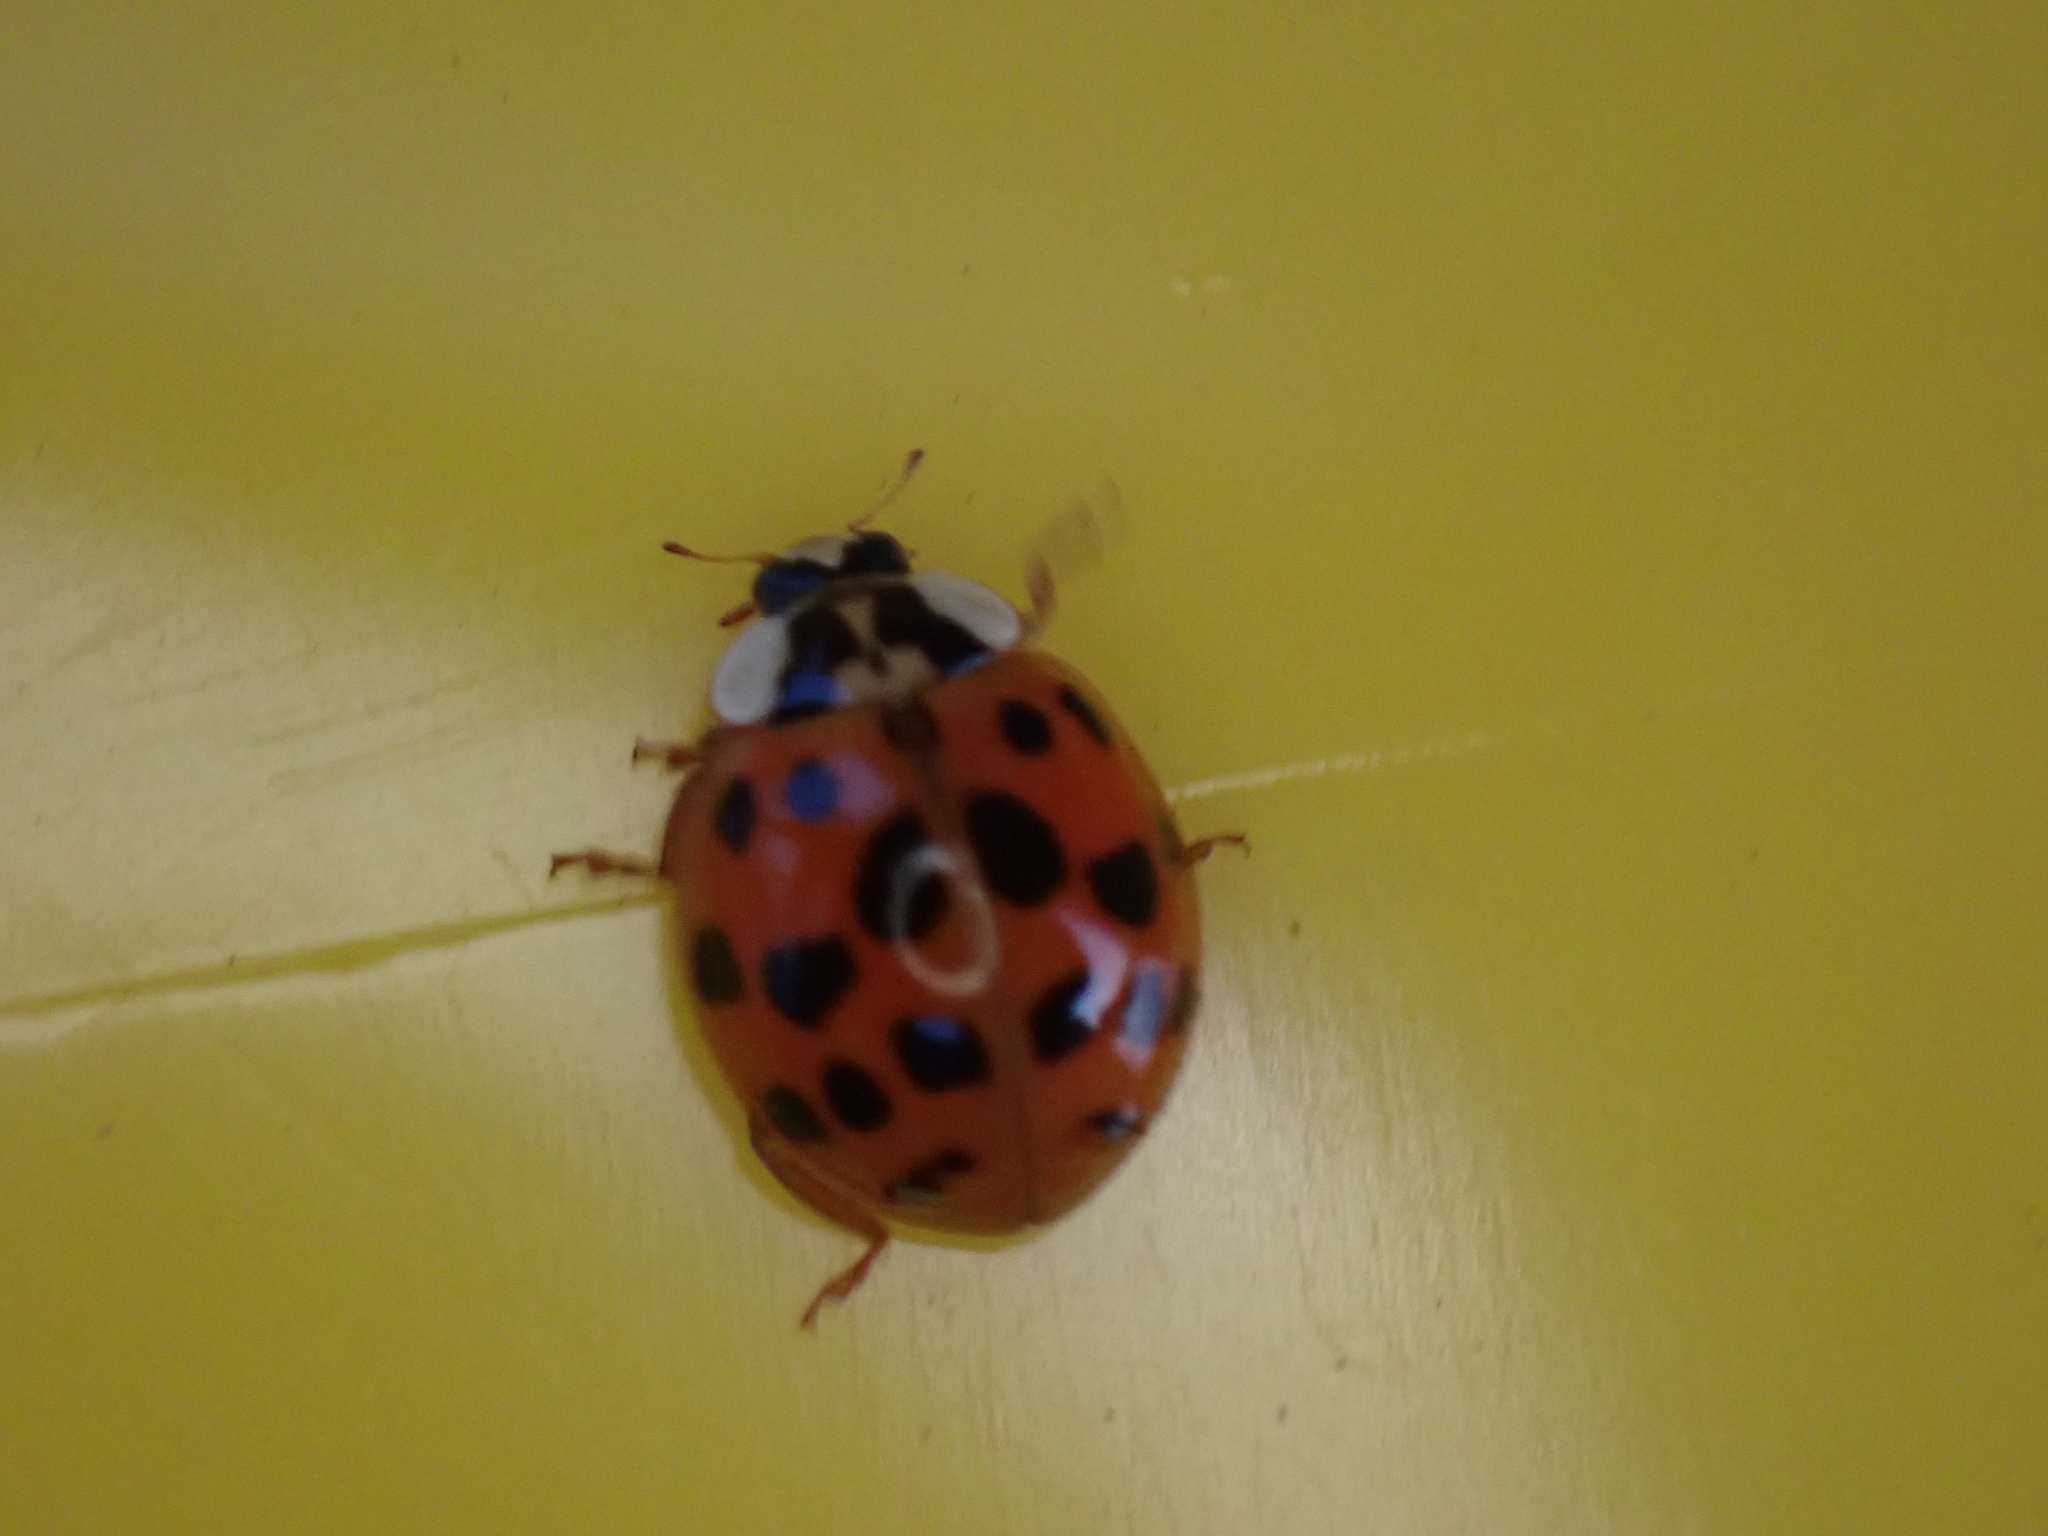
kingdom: Animalia
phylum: Arthropoda
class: Insecta
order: Coleoptera
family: Coccinellidae
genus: Harmonia
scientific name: Harmonia axyridis
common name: Harlequin ladybird
